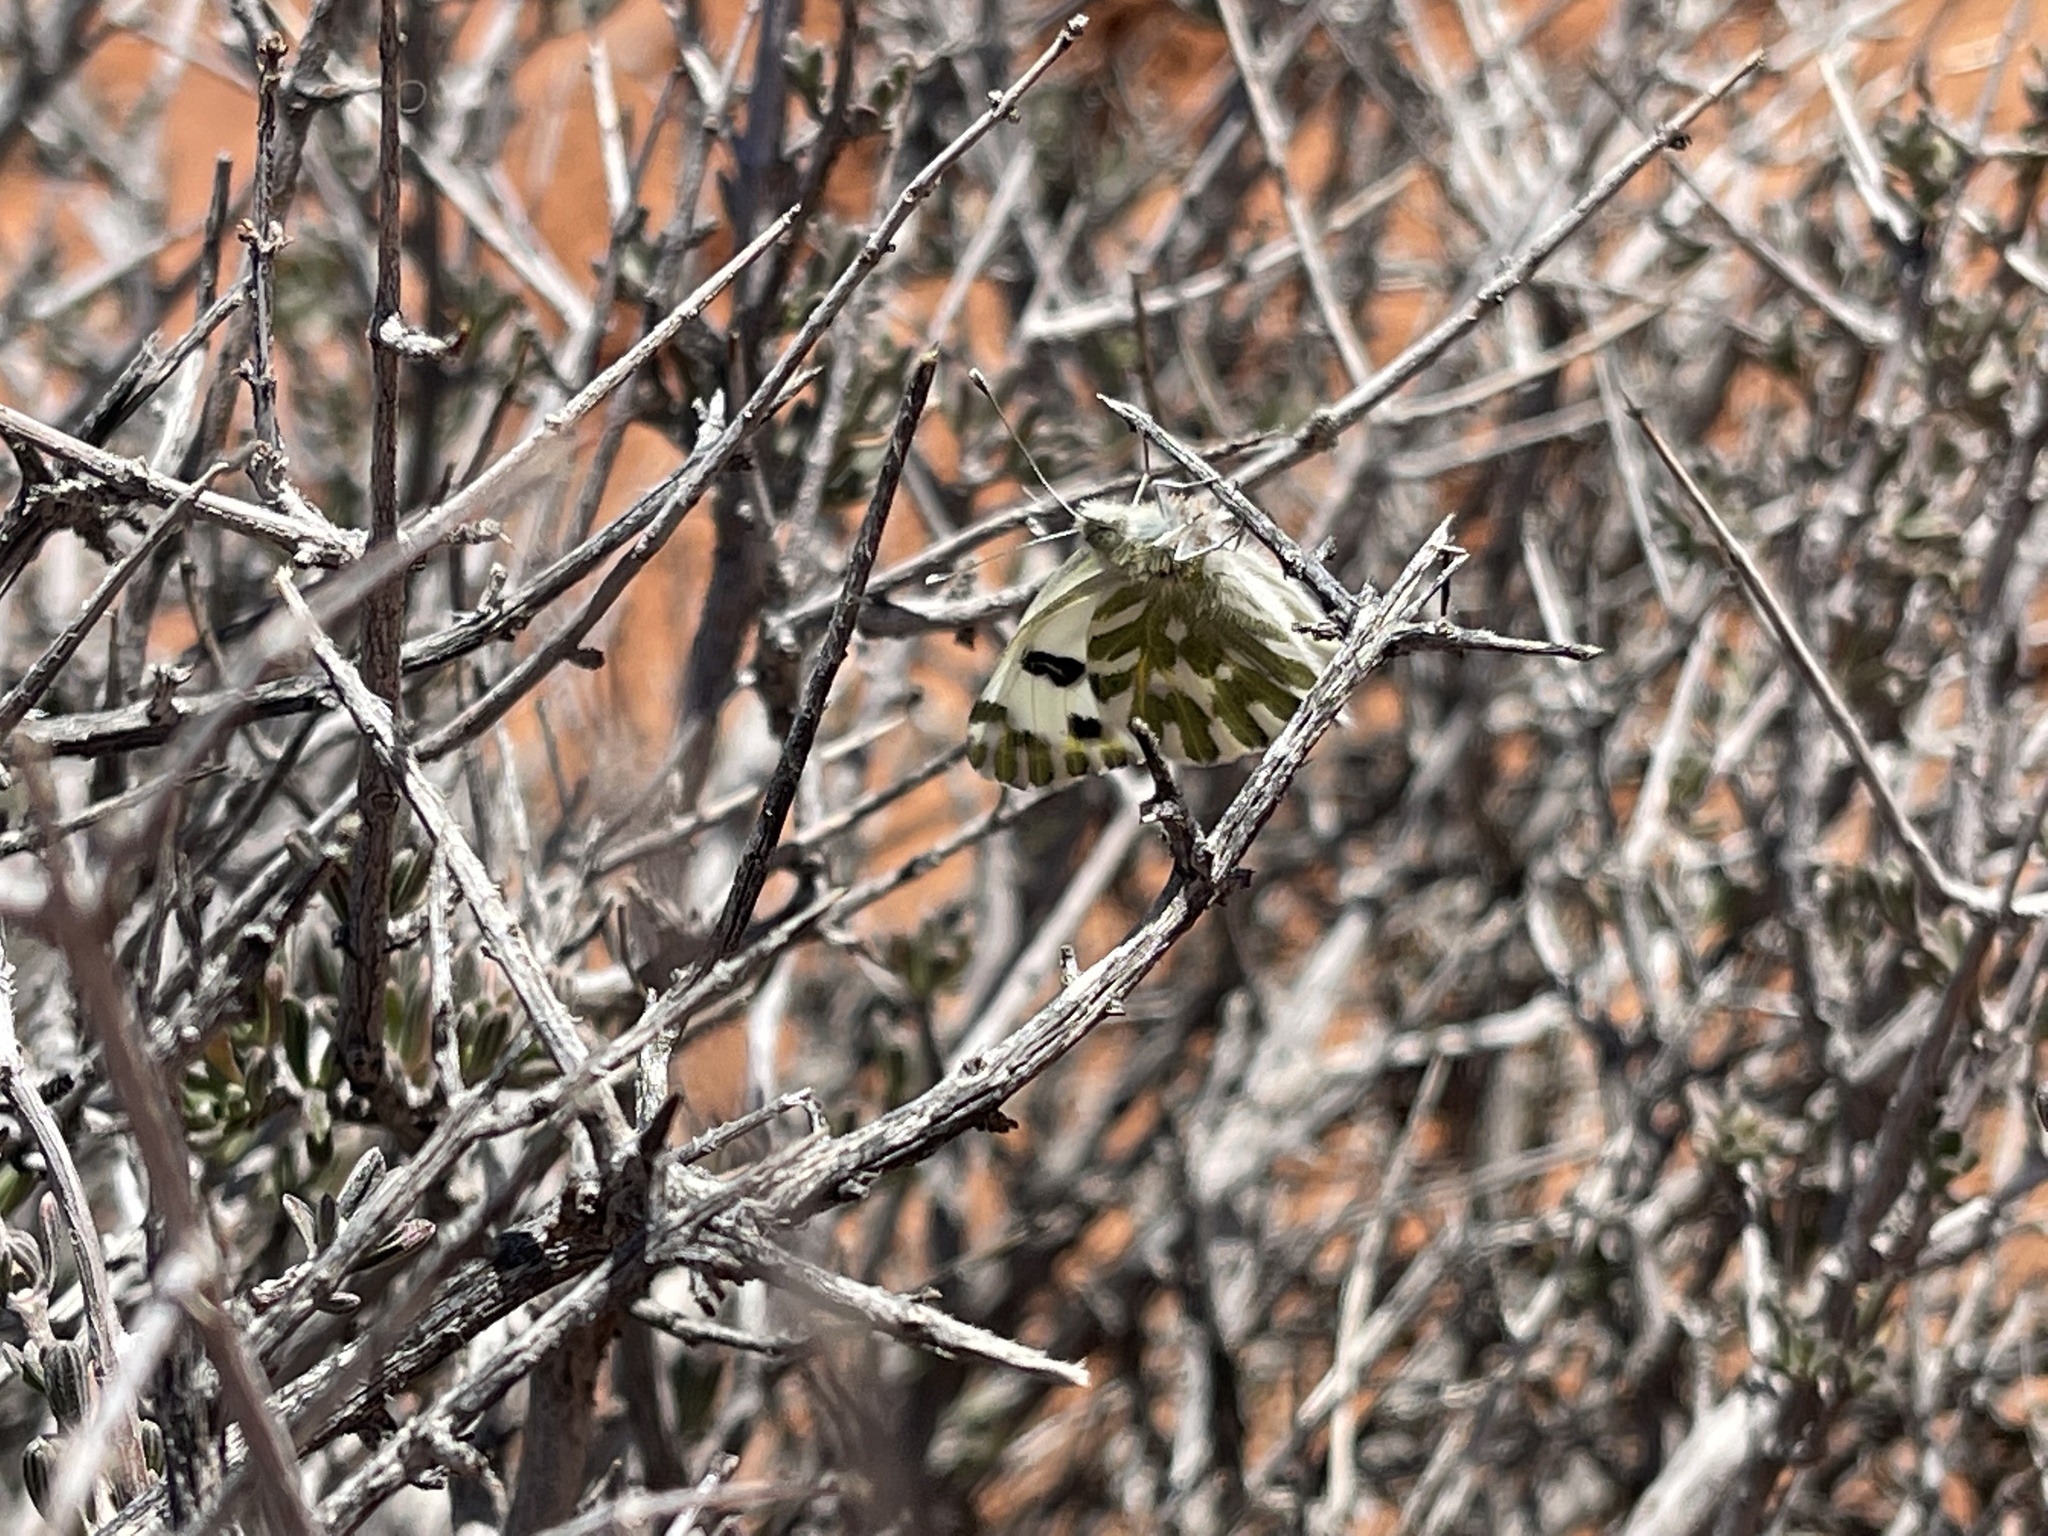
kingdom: Animalia
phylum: Arthropoda
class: Insecta
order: Lepidoptera
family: Pieridae
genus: Pontia
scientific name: Pontia beckerii
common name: Becker's white
